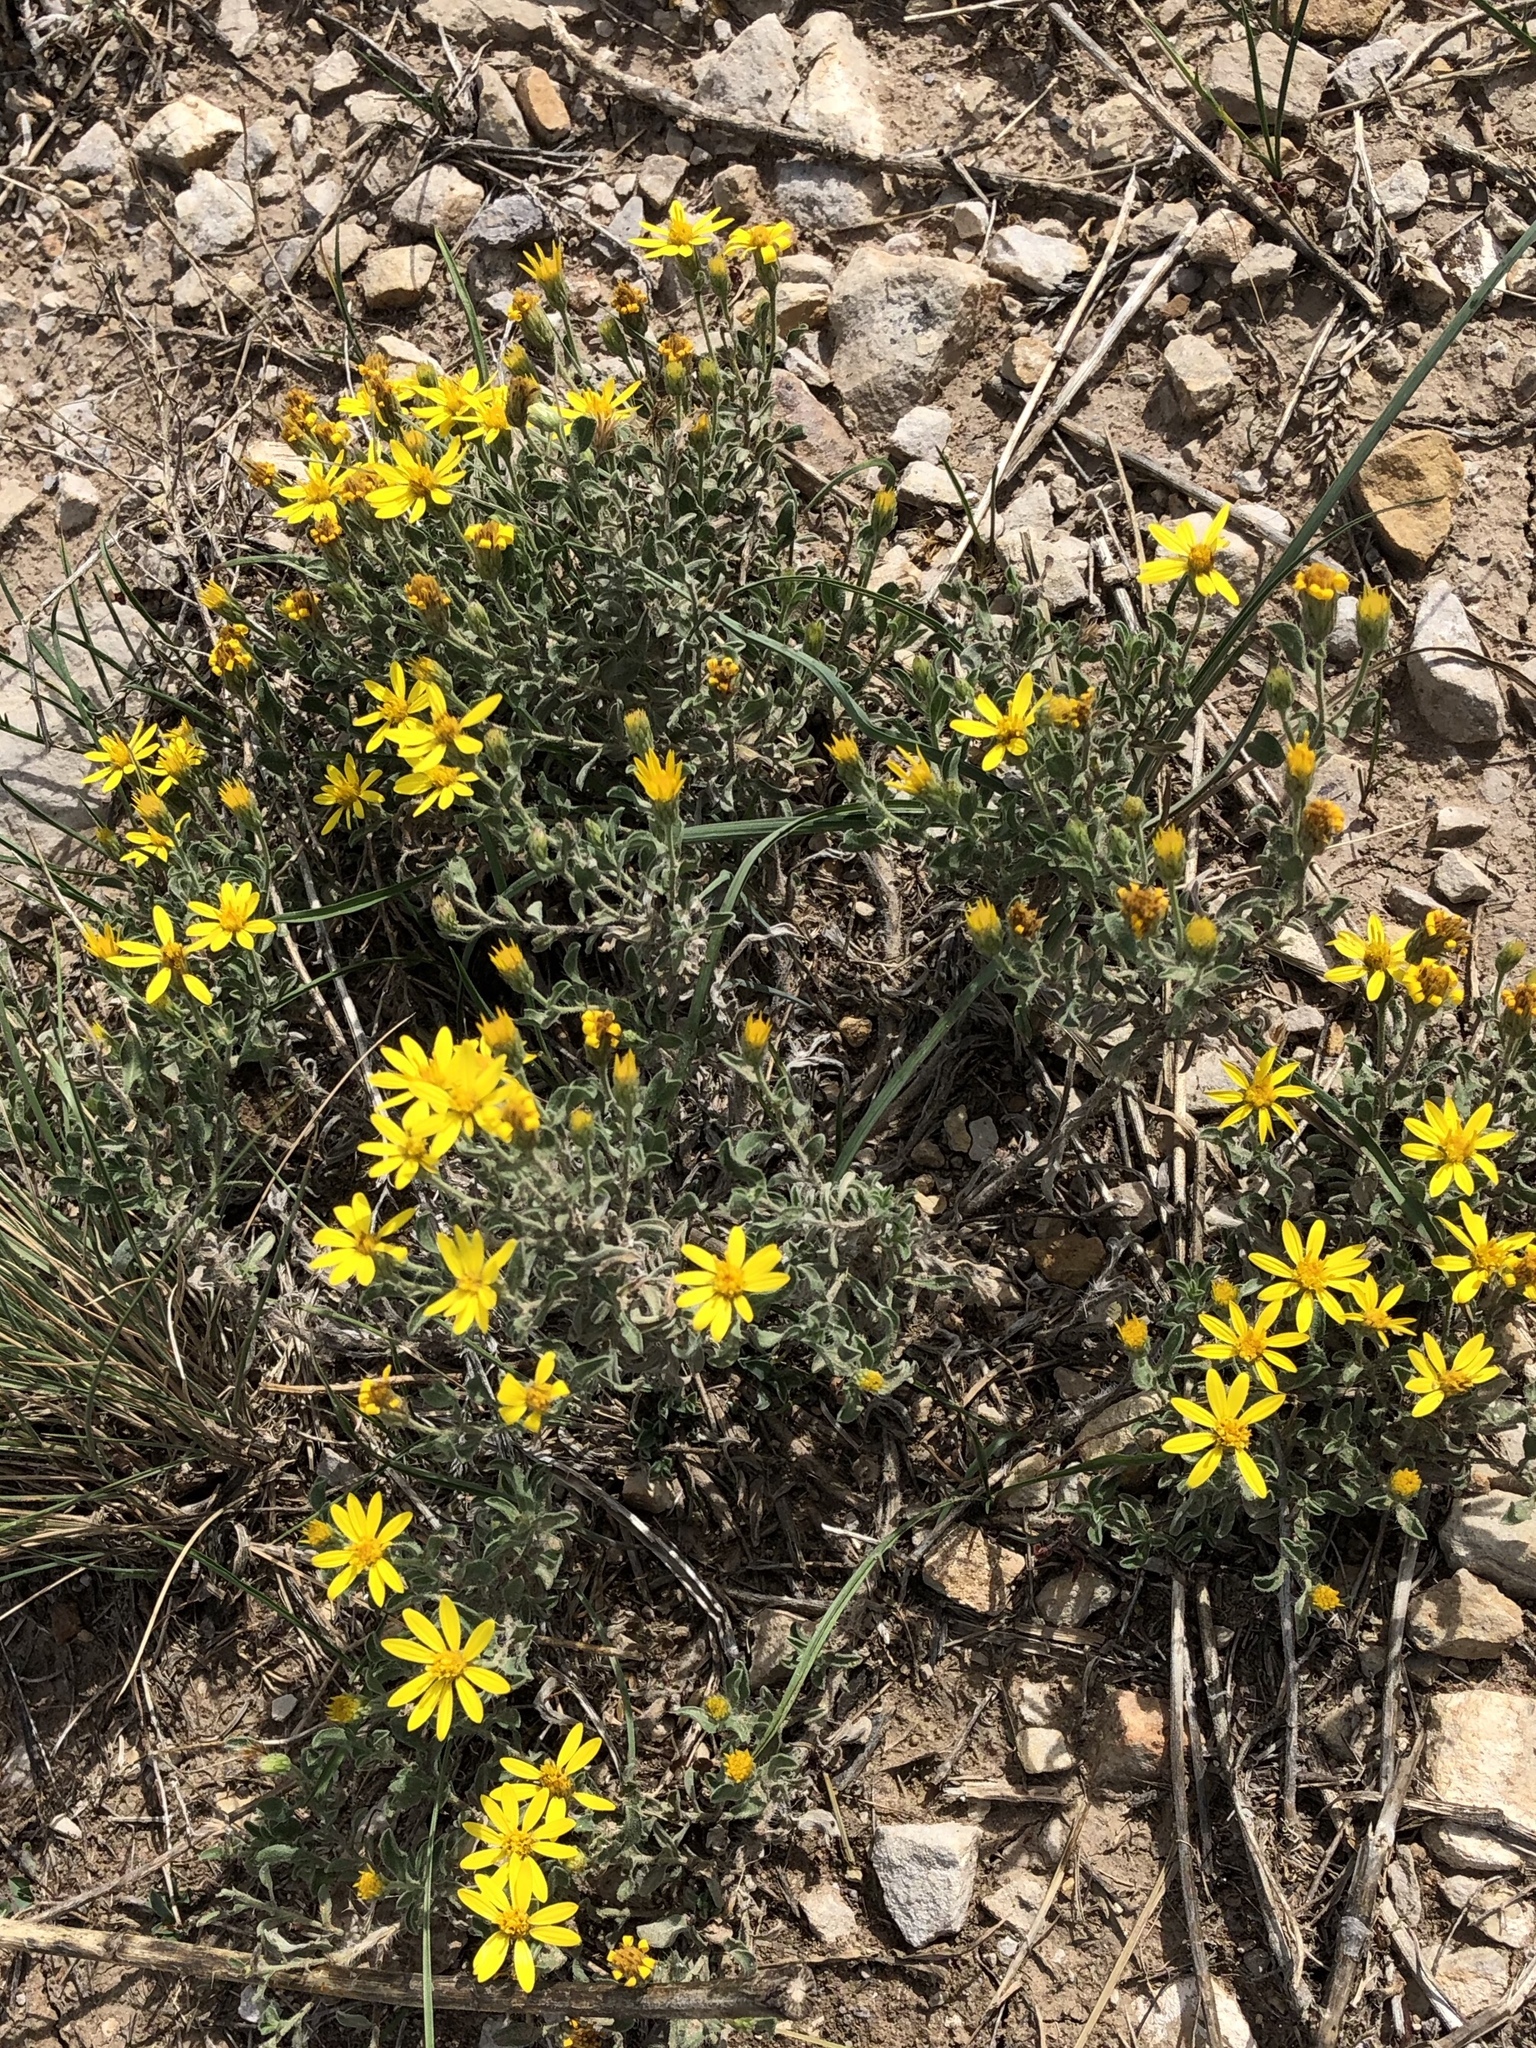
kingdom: Plantae
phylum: Tracheophyta
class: Magnoliopsida
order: Asterales
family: Asteraceae
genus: Heterotheca
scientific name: Heterotheca hirsutissima
